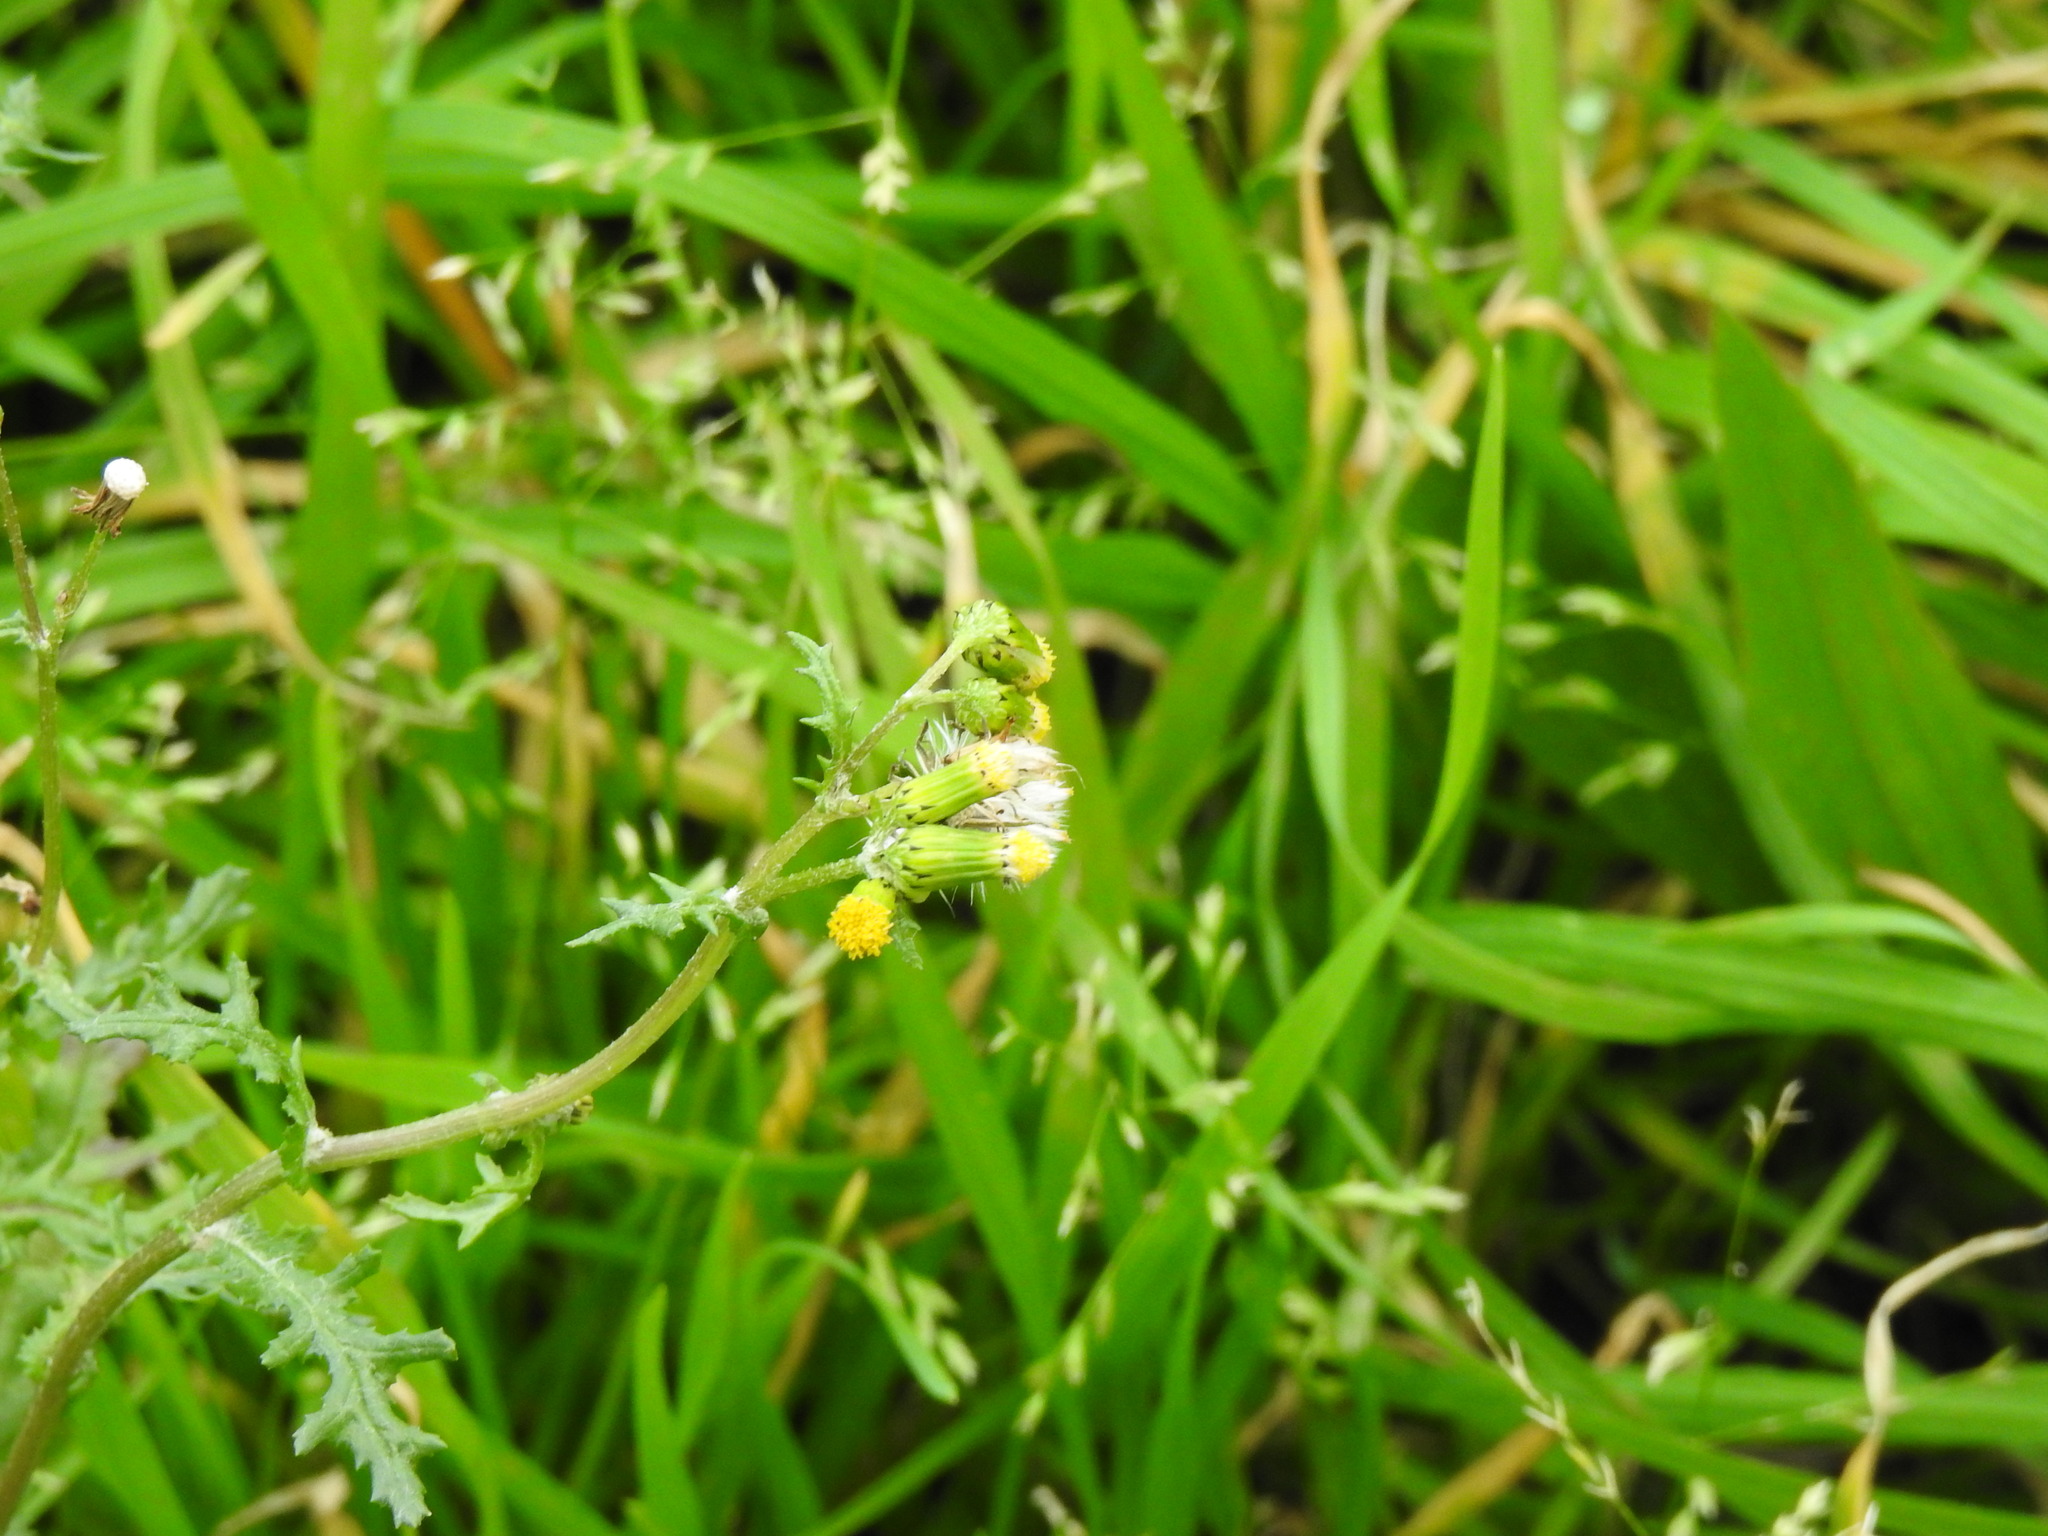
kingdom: Plantae
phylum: Tracheophyta
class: Magnoliopsida
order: Asterales
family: Asteraceae
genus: Senecio
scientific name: Senecio vulgaris
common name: Old-man-in-the-spring
